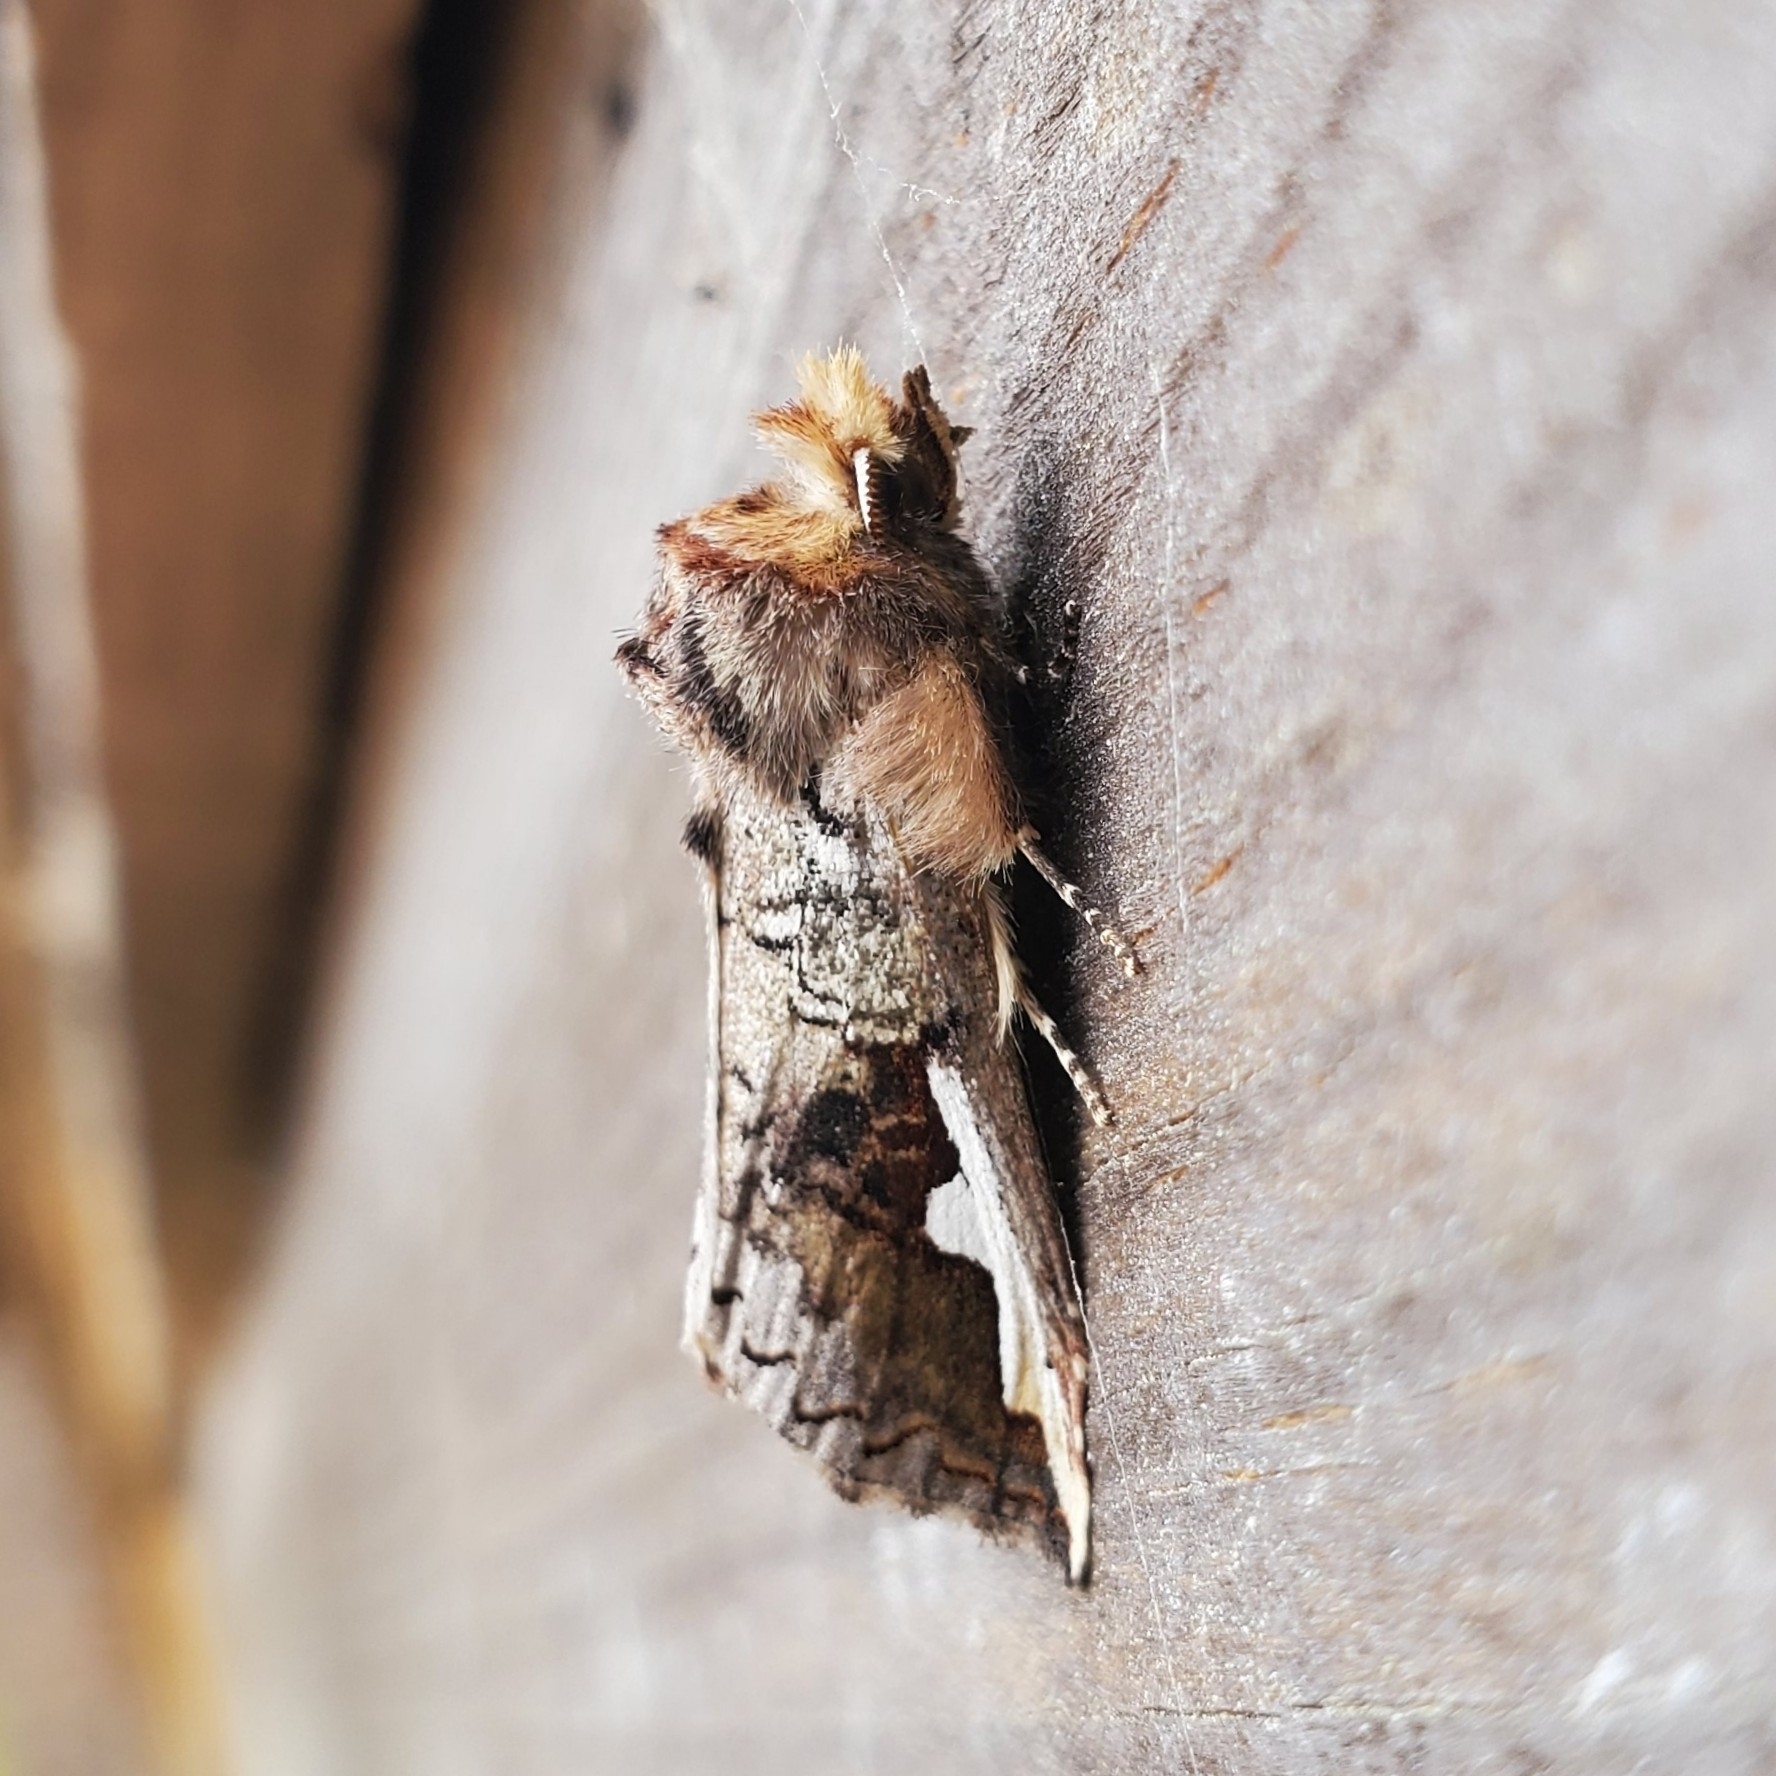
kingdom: Animalia
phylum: Arthropoda
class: Insecta
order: Lepidoptera
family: Notodontidae
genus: Symmerista
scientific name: Symmerista albifrons
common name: White-headed prominent
